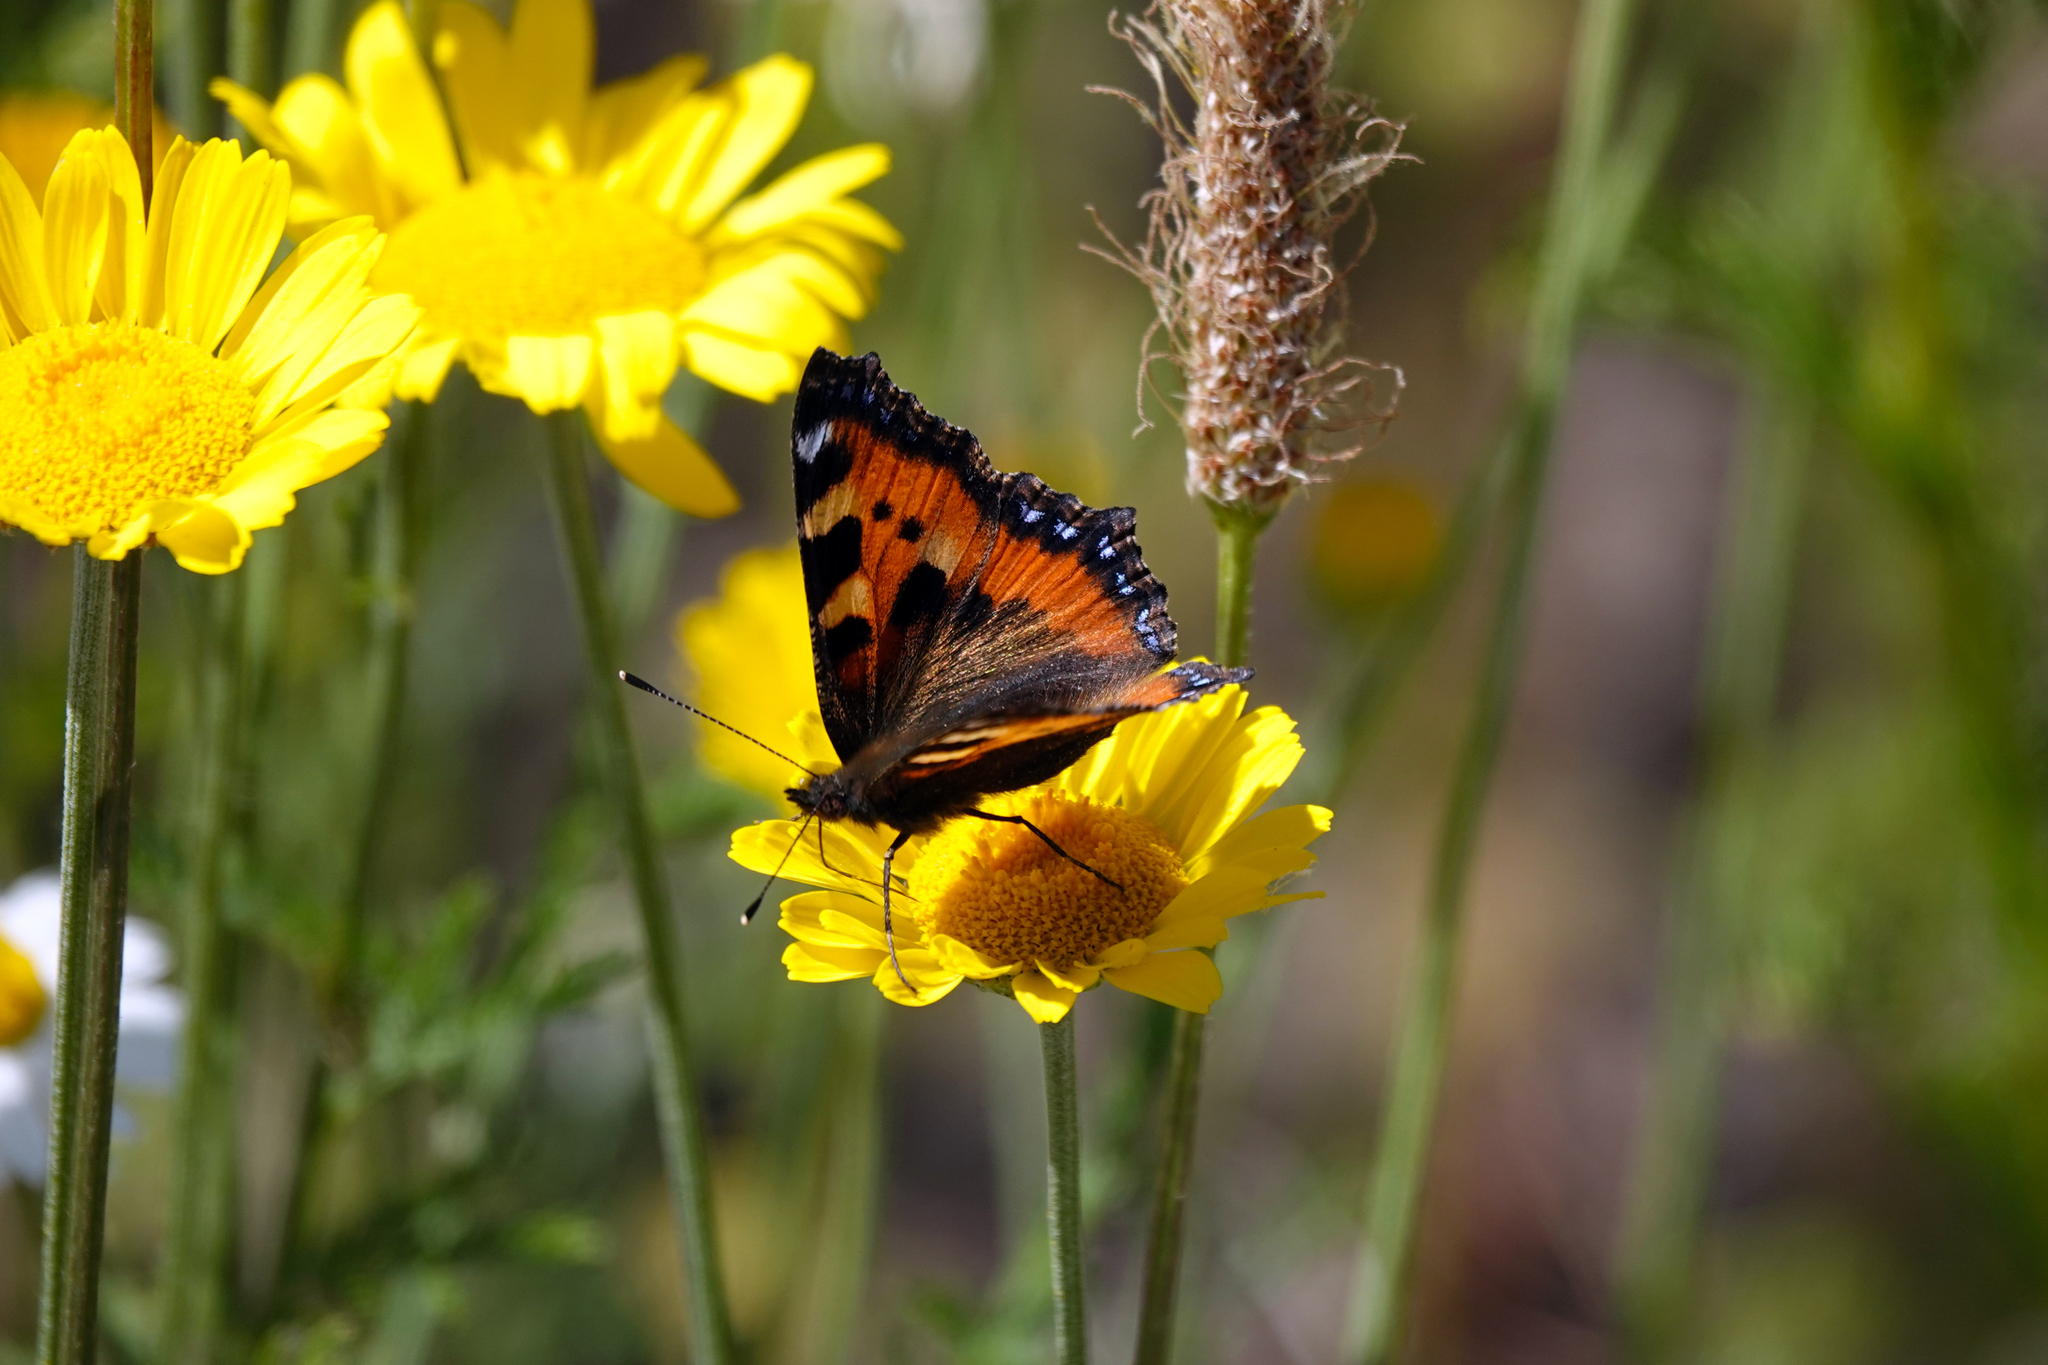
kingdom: Animalia
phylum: Arthropoda
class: Insecta
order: Lepidoptera
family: Nymphalidae
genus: Aglais
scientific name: Aglais urticae
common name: Small tortoiseshell
